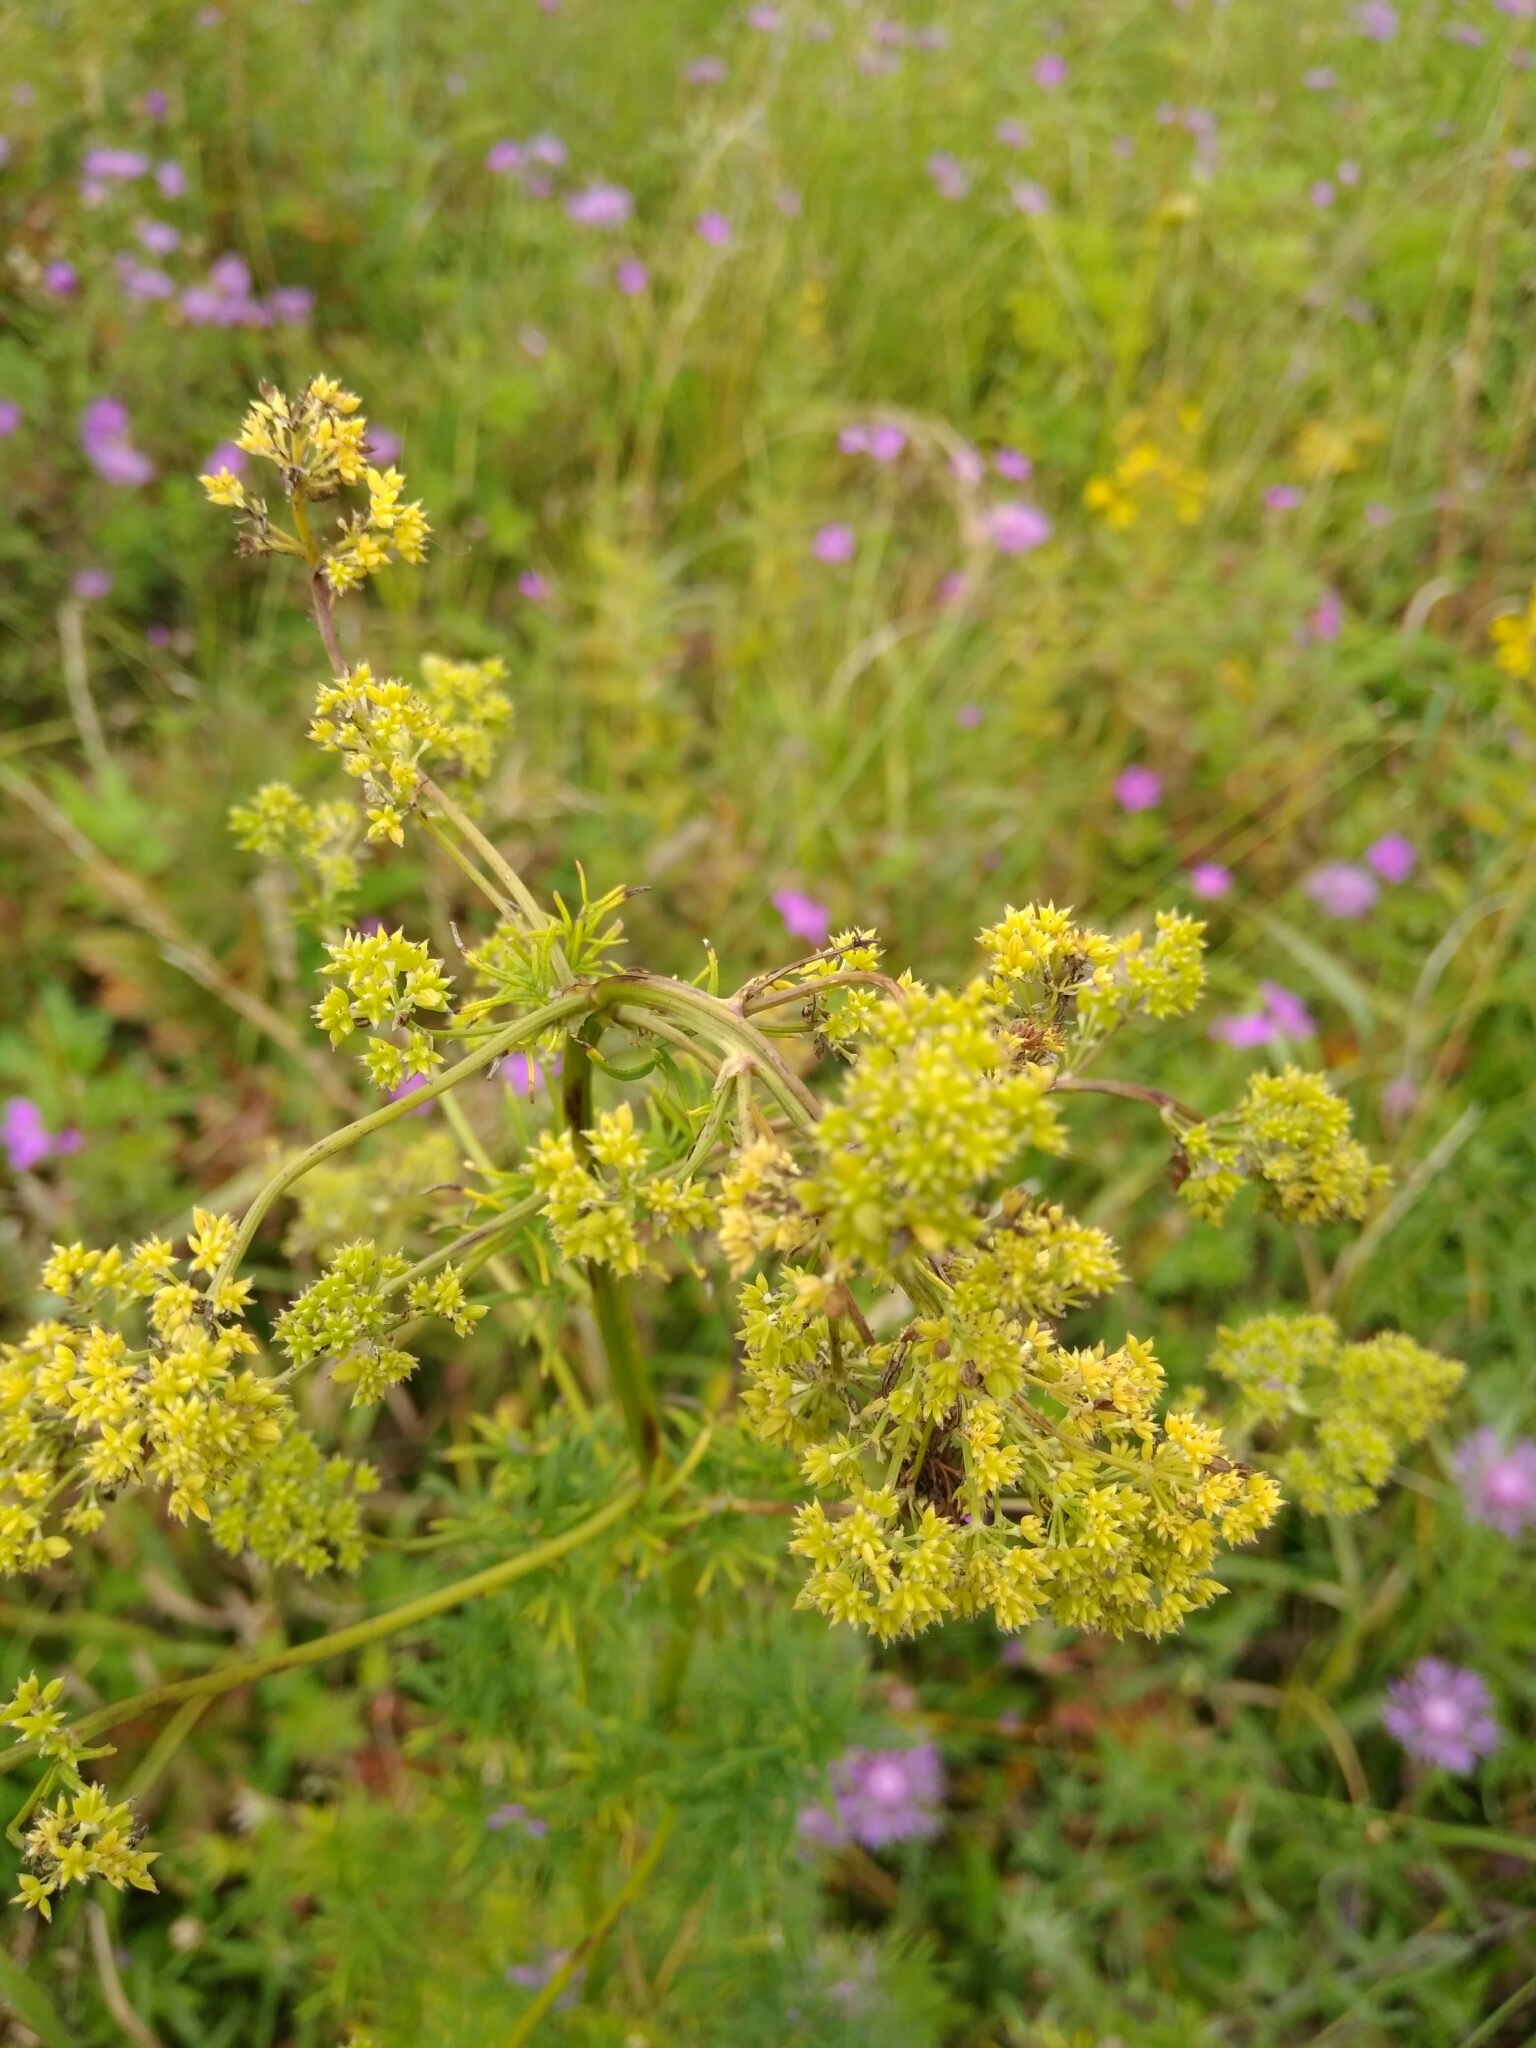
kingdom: Plantae
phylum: Tracheophyta
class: Magnoliopsida
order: Ranunculales
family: Ranunculaceae
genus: Thalictrum
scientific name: Thalictrum lucidum
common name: Shining meadow-rue
